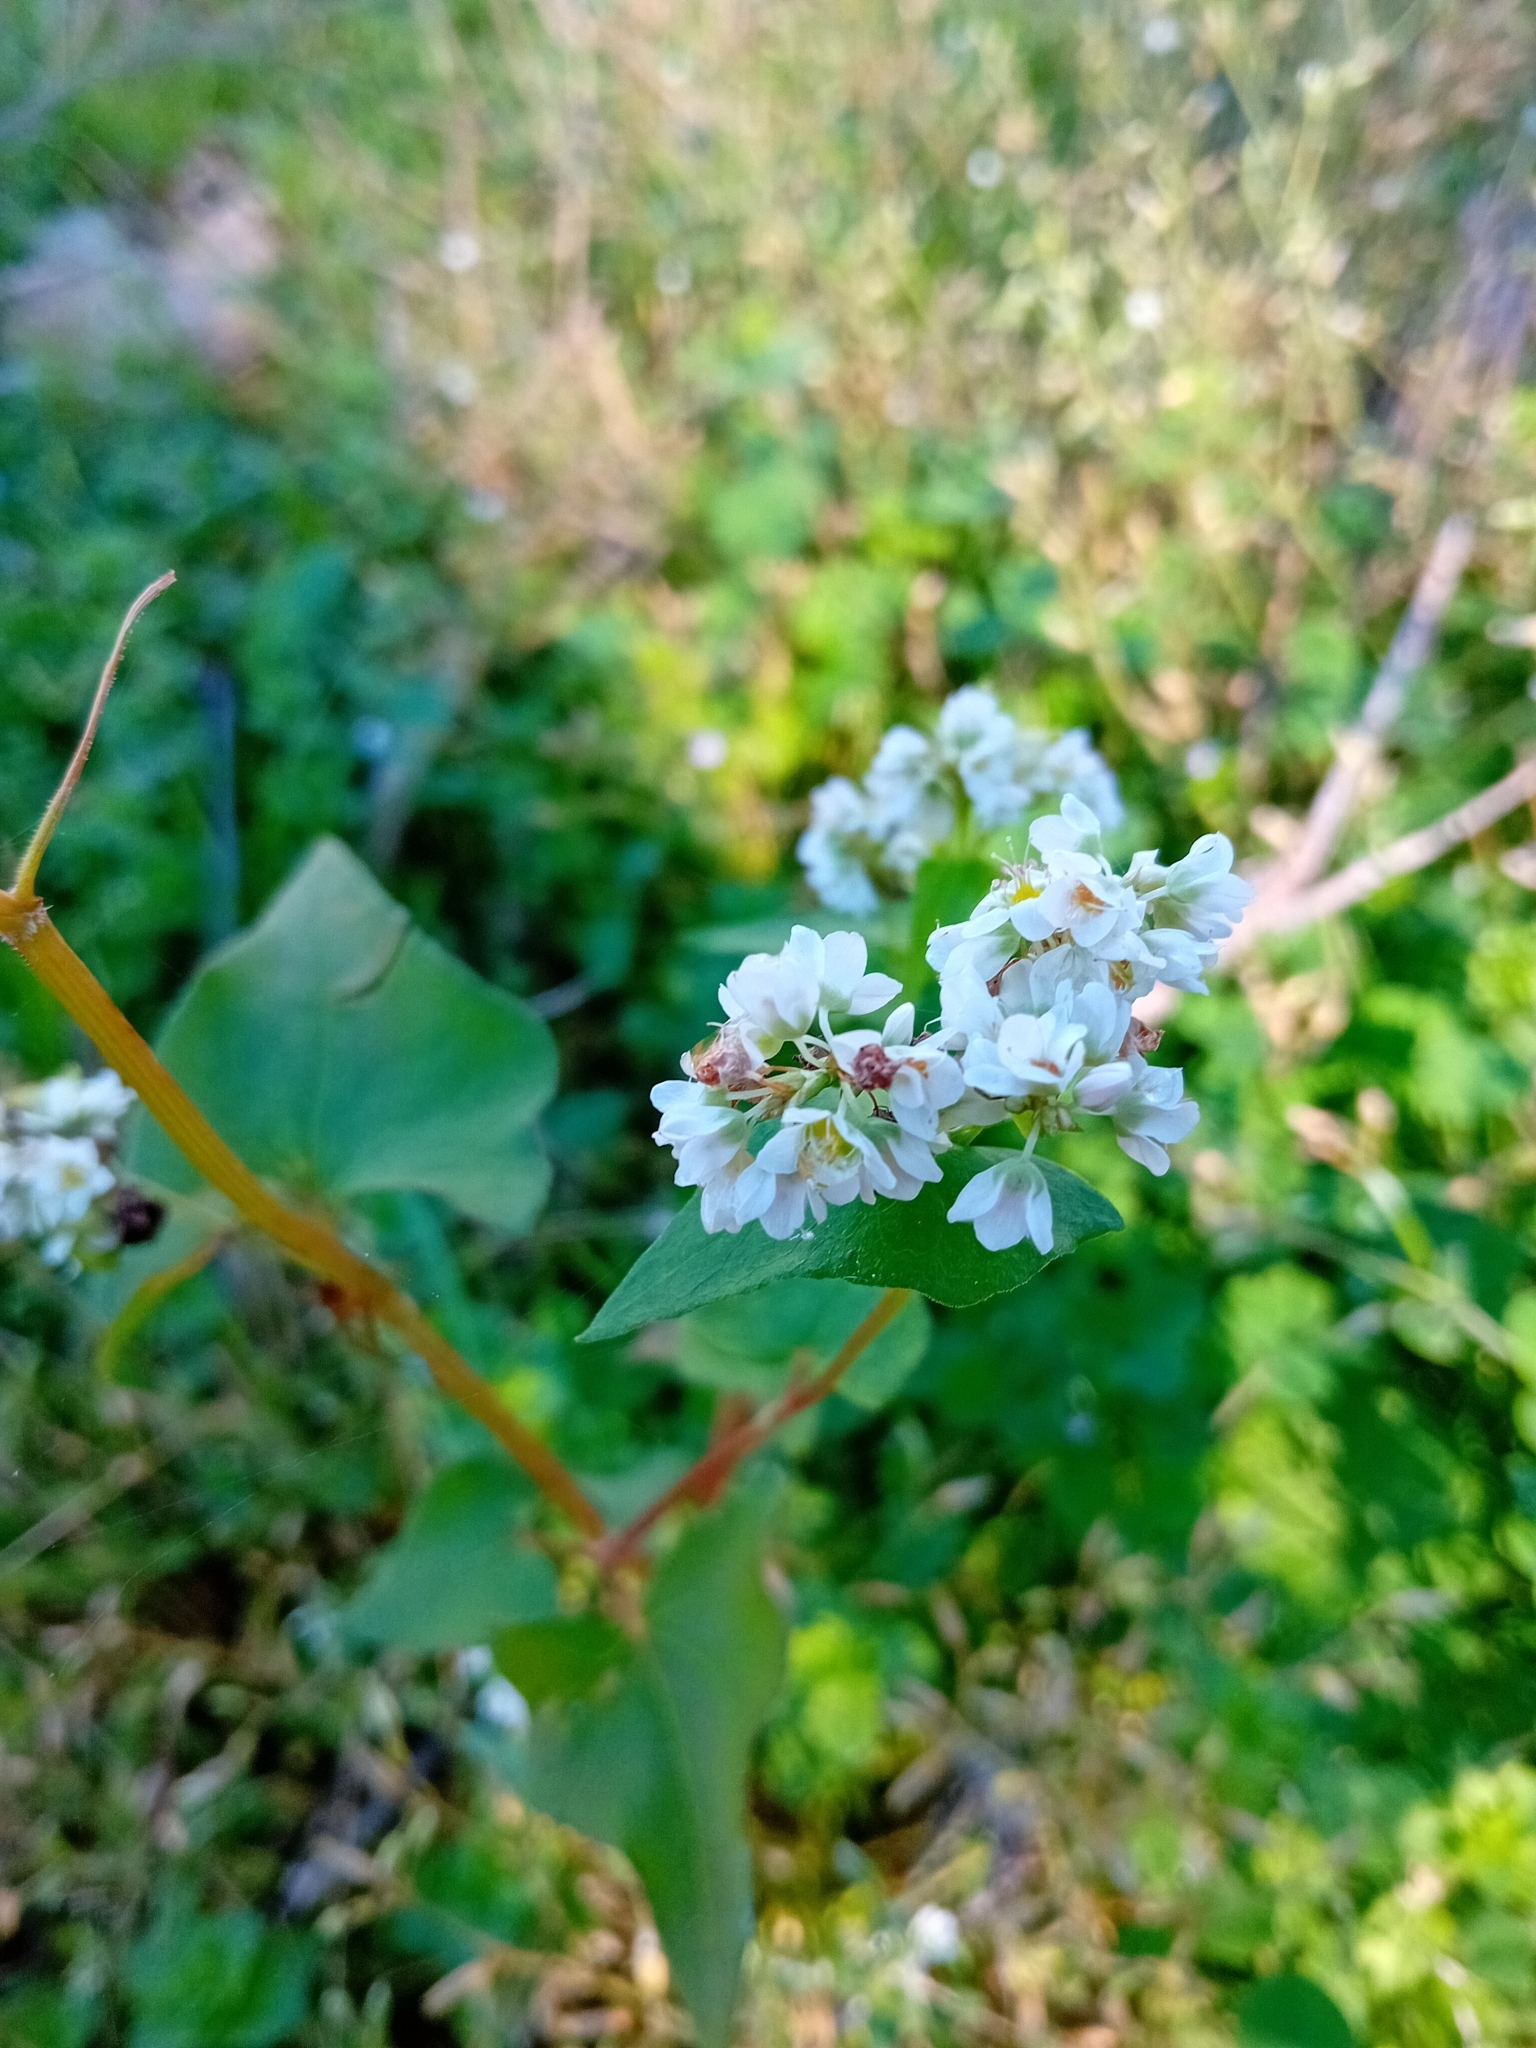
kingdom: Plantae
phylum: Tracheophyta
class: Magnoliopsida
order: Caryophyllales
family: Polygonaceae
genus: Fagopyrum
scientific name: Fagopyrum esculentum
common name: Buckwheat
